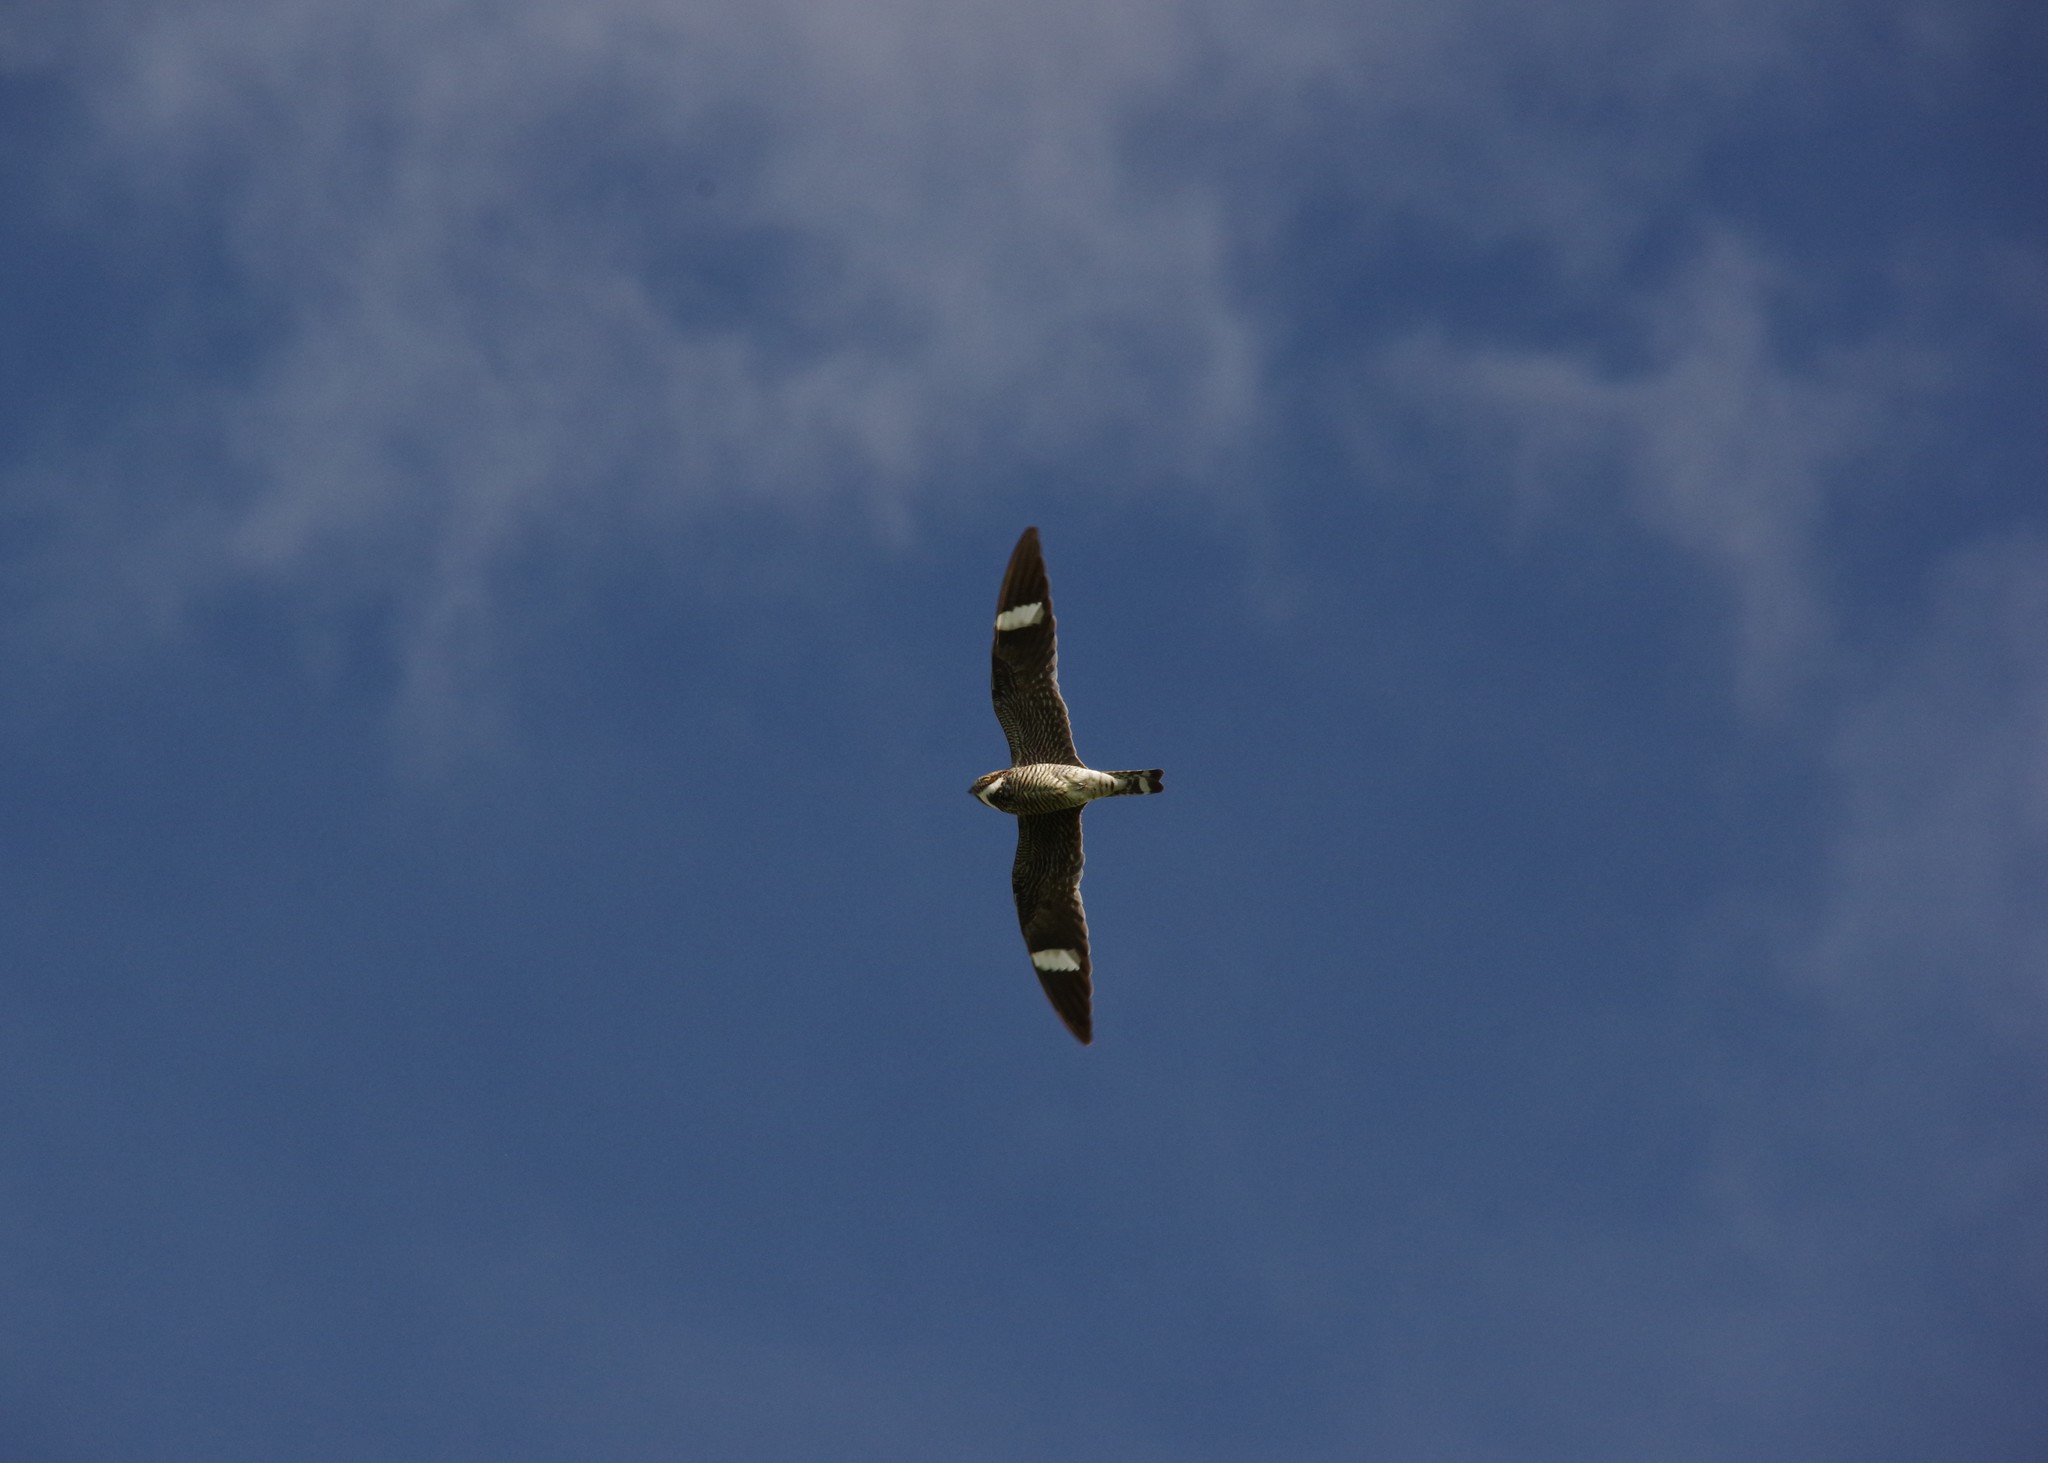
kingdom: Animalia
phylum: Chordata
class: Aves
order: Caprimulgiformes
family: Caprimulgidae
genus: Chordeiles
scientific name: Chordeiles minor
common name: Common nighthawk
